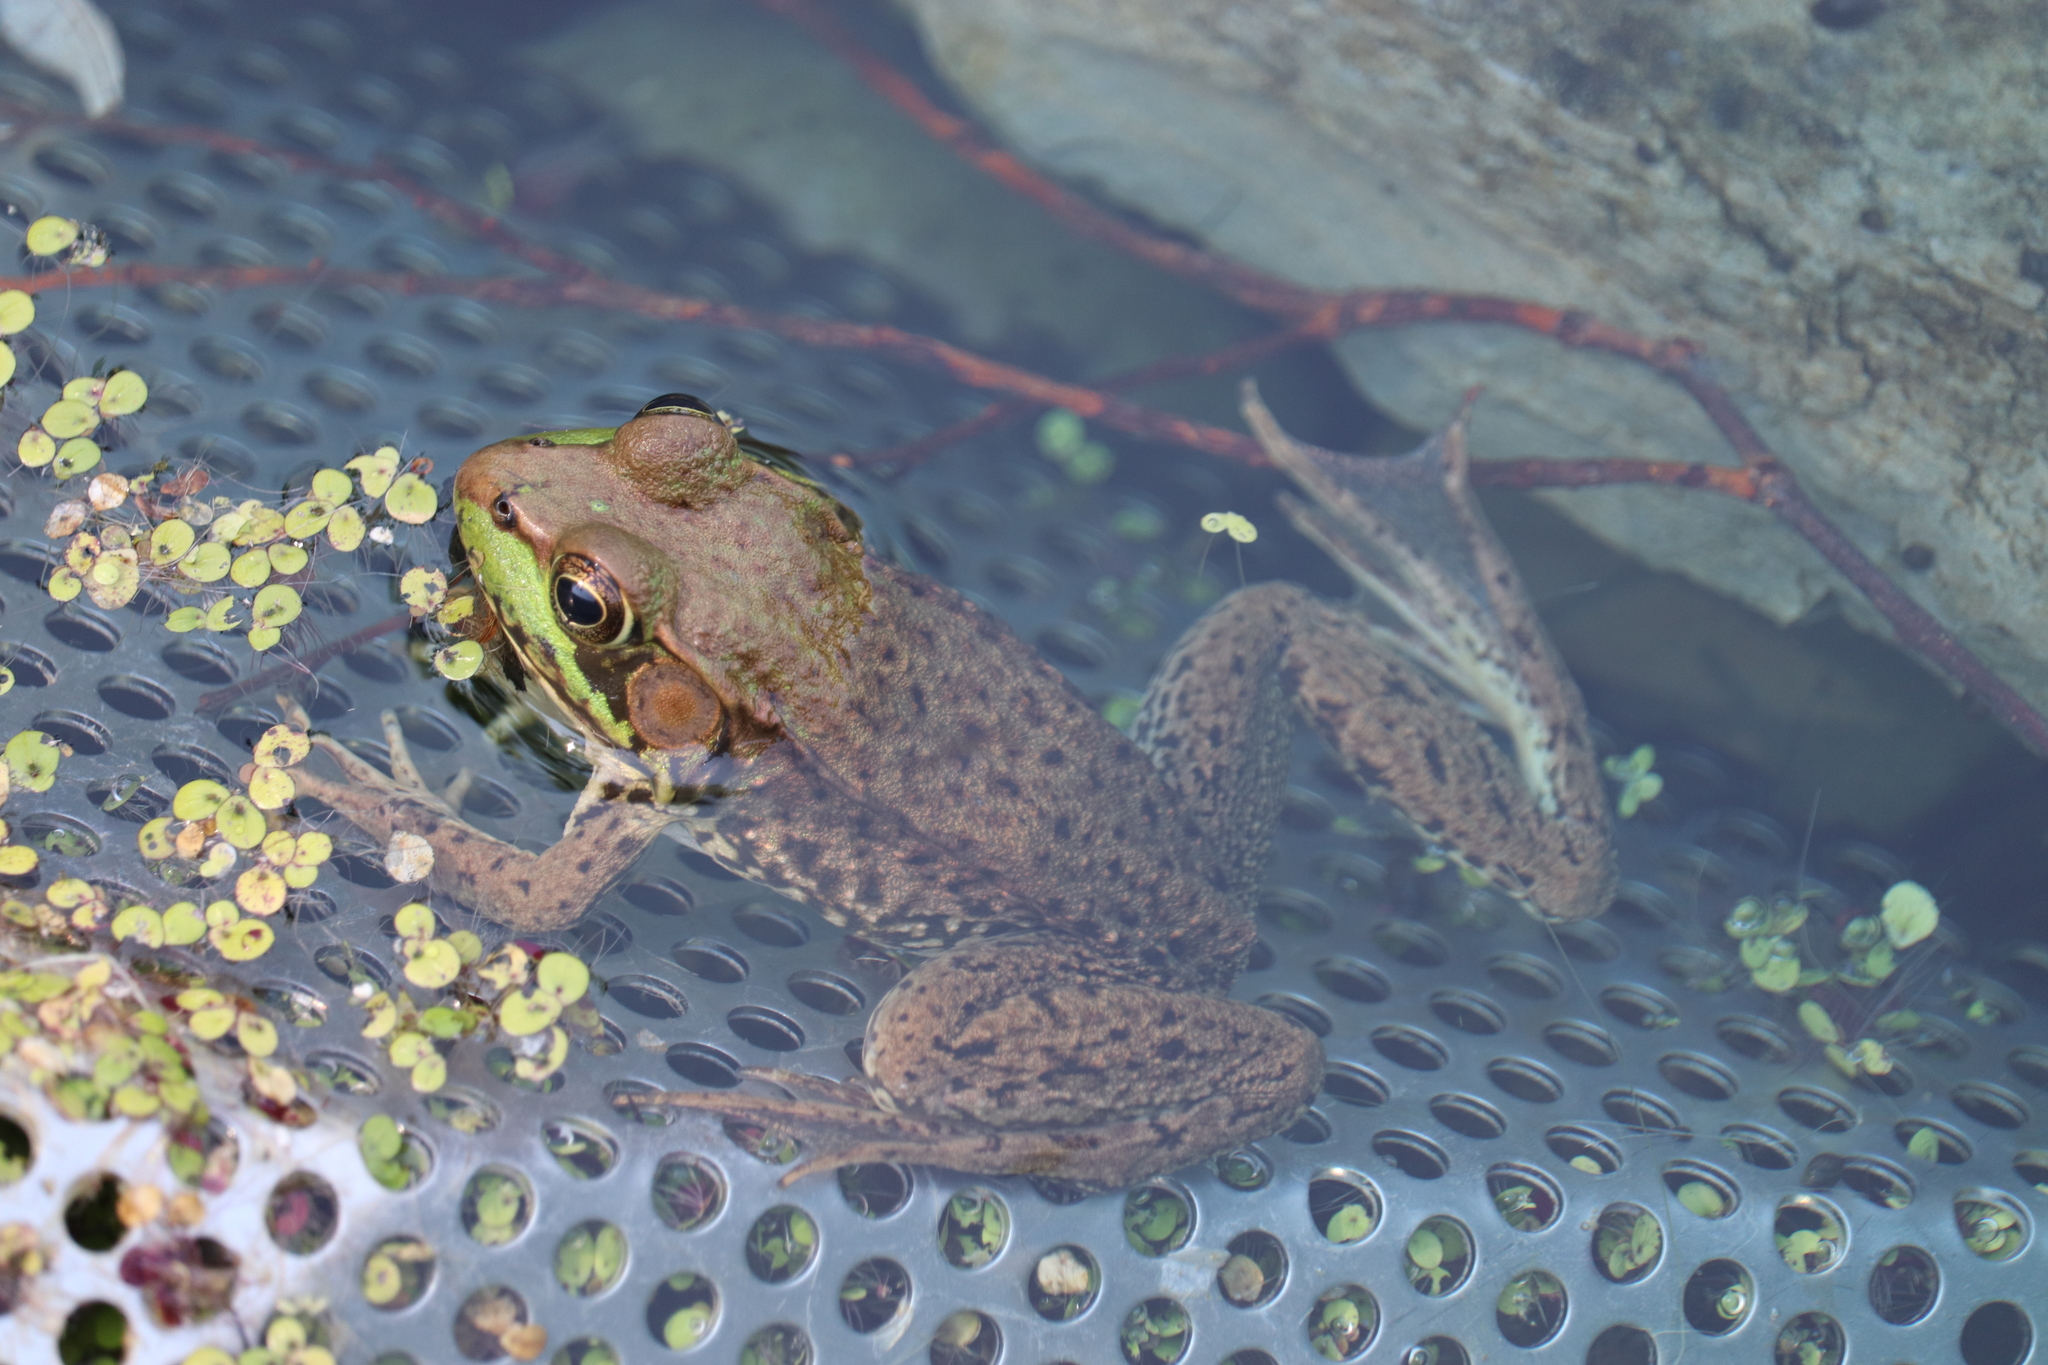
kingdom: Animalia
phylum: Chordata
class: Amphibia
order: Anura
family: Ranidae
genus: Lithobates
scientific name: Lithobates clamitans
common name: Green frog
